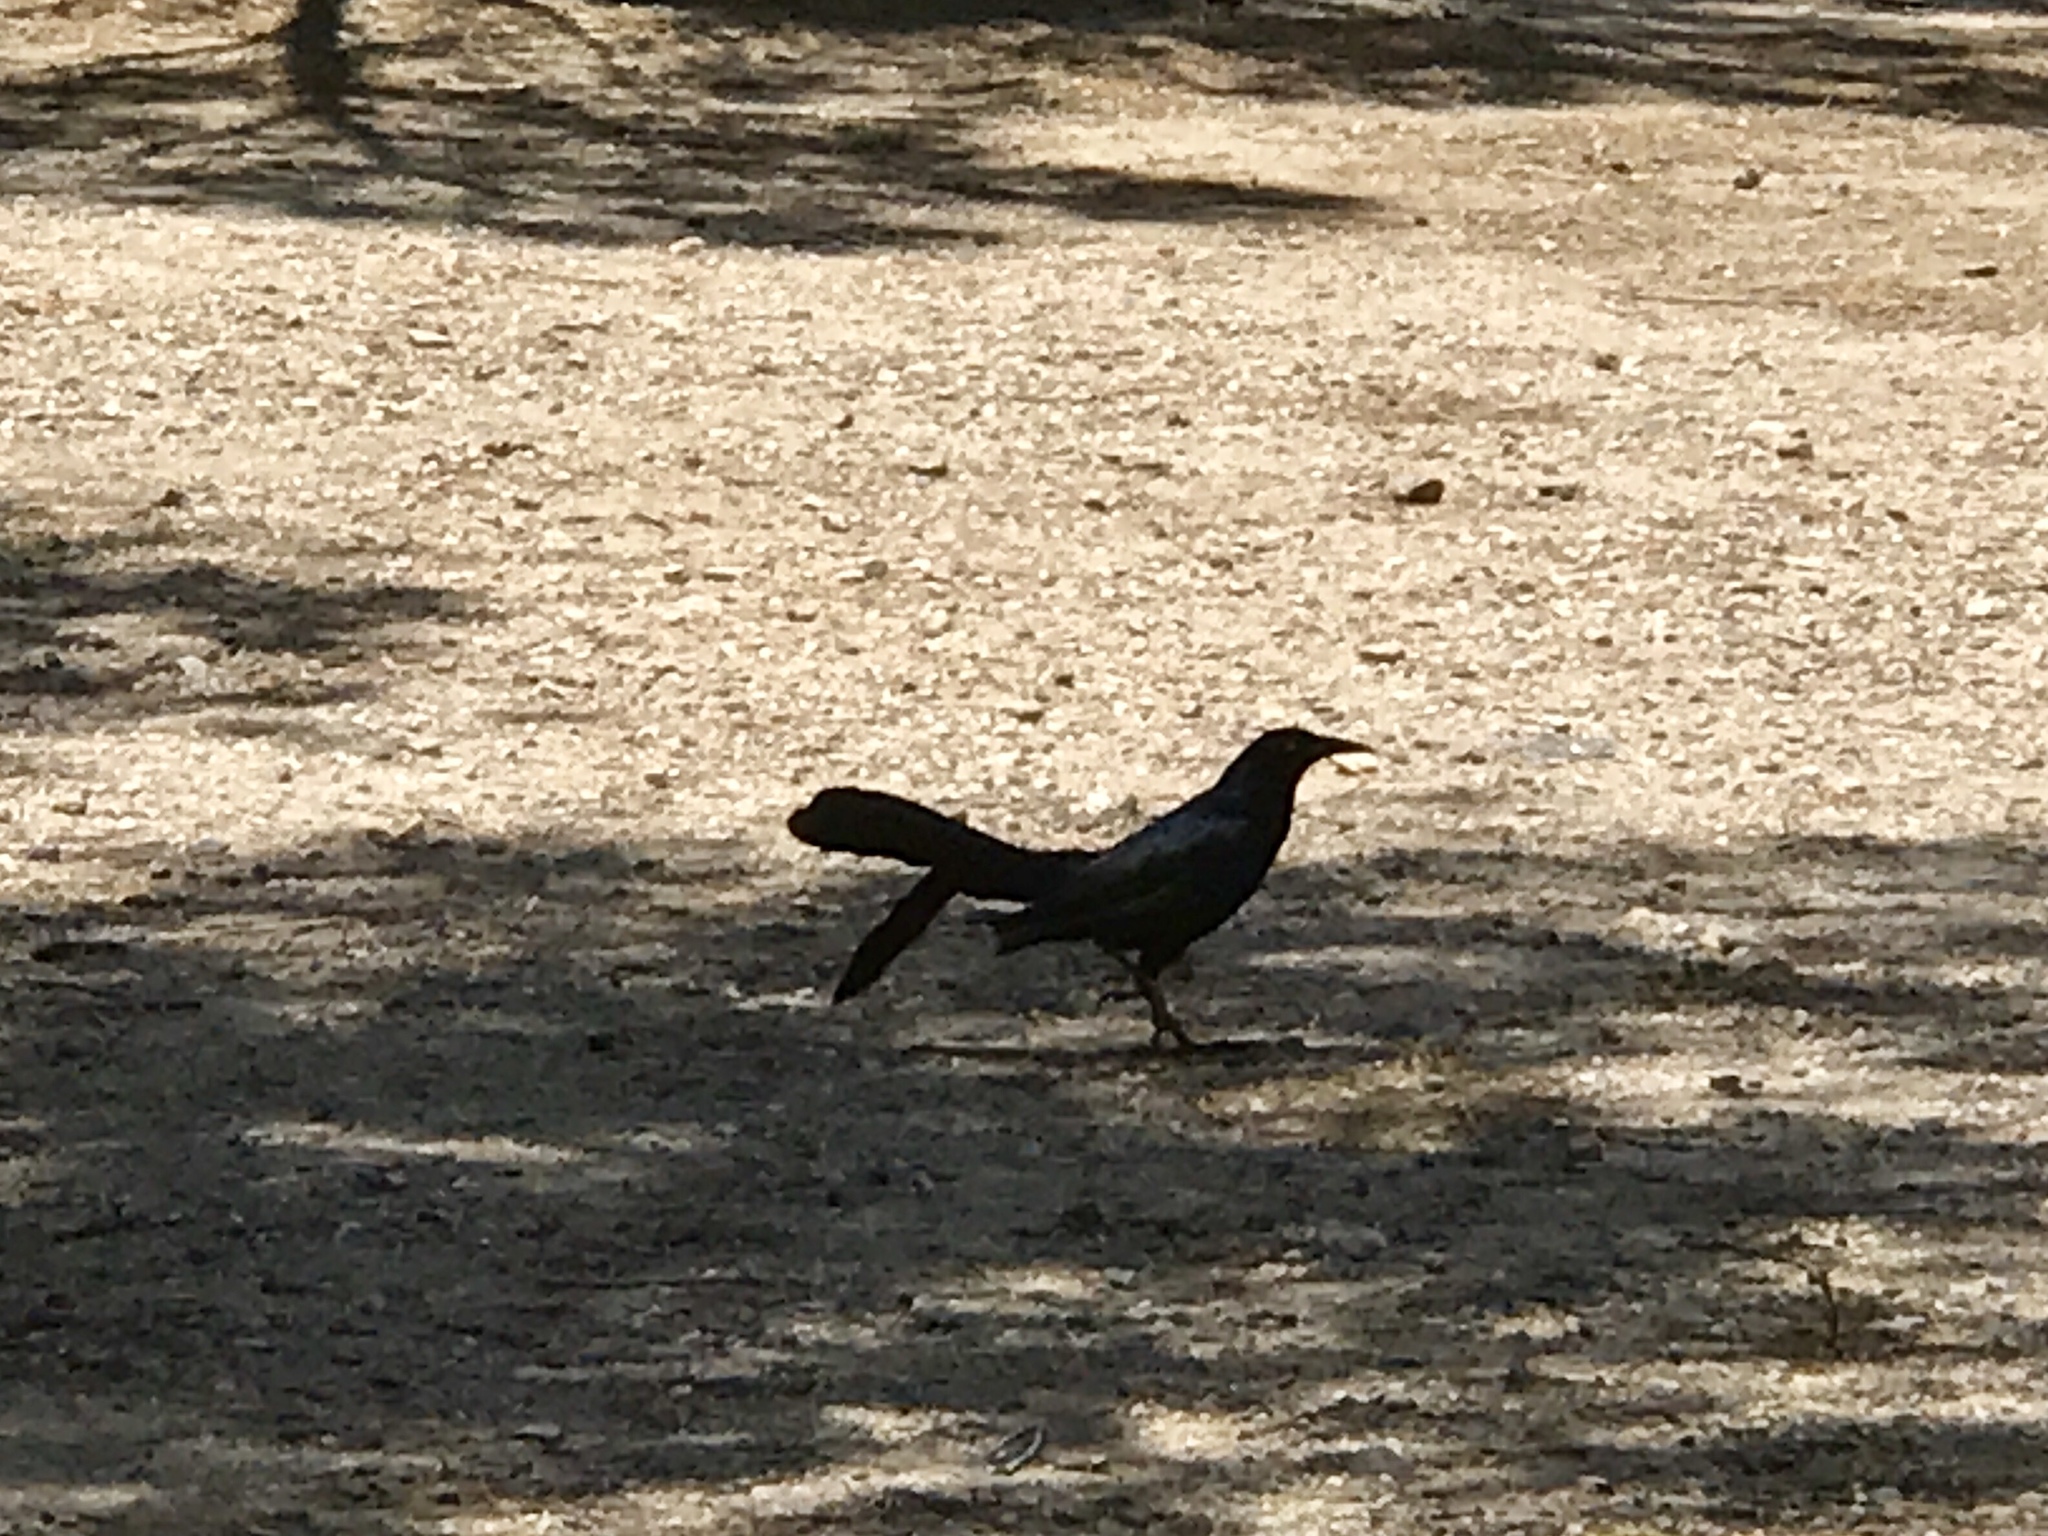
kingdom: Animalia
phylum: Chordata
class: Aves
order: Passeriformes
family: Icteridae
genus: Quiscalus
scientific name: Quiscalus mexicanus
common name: Great-tailed grackle
